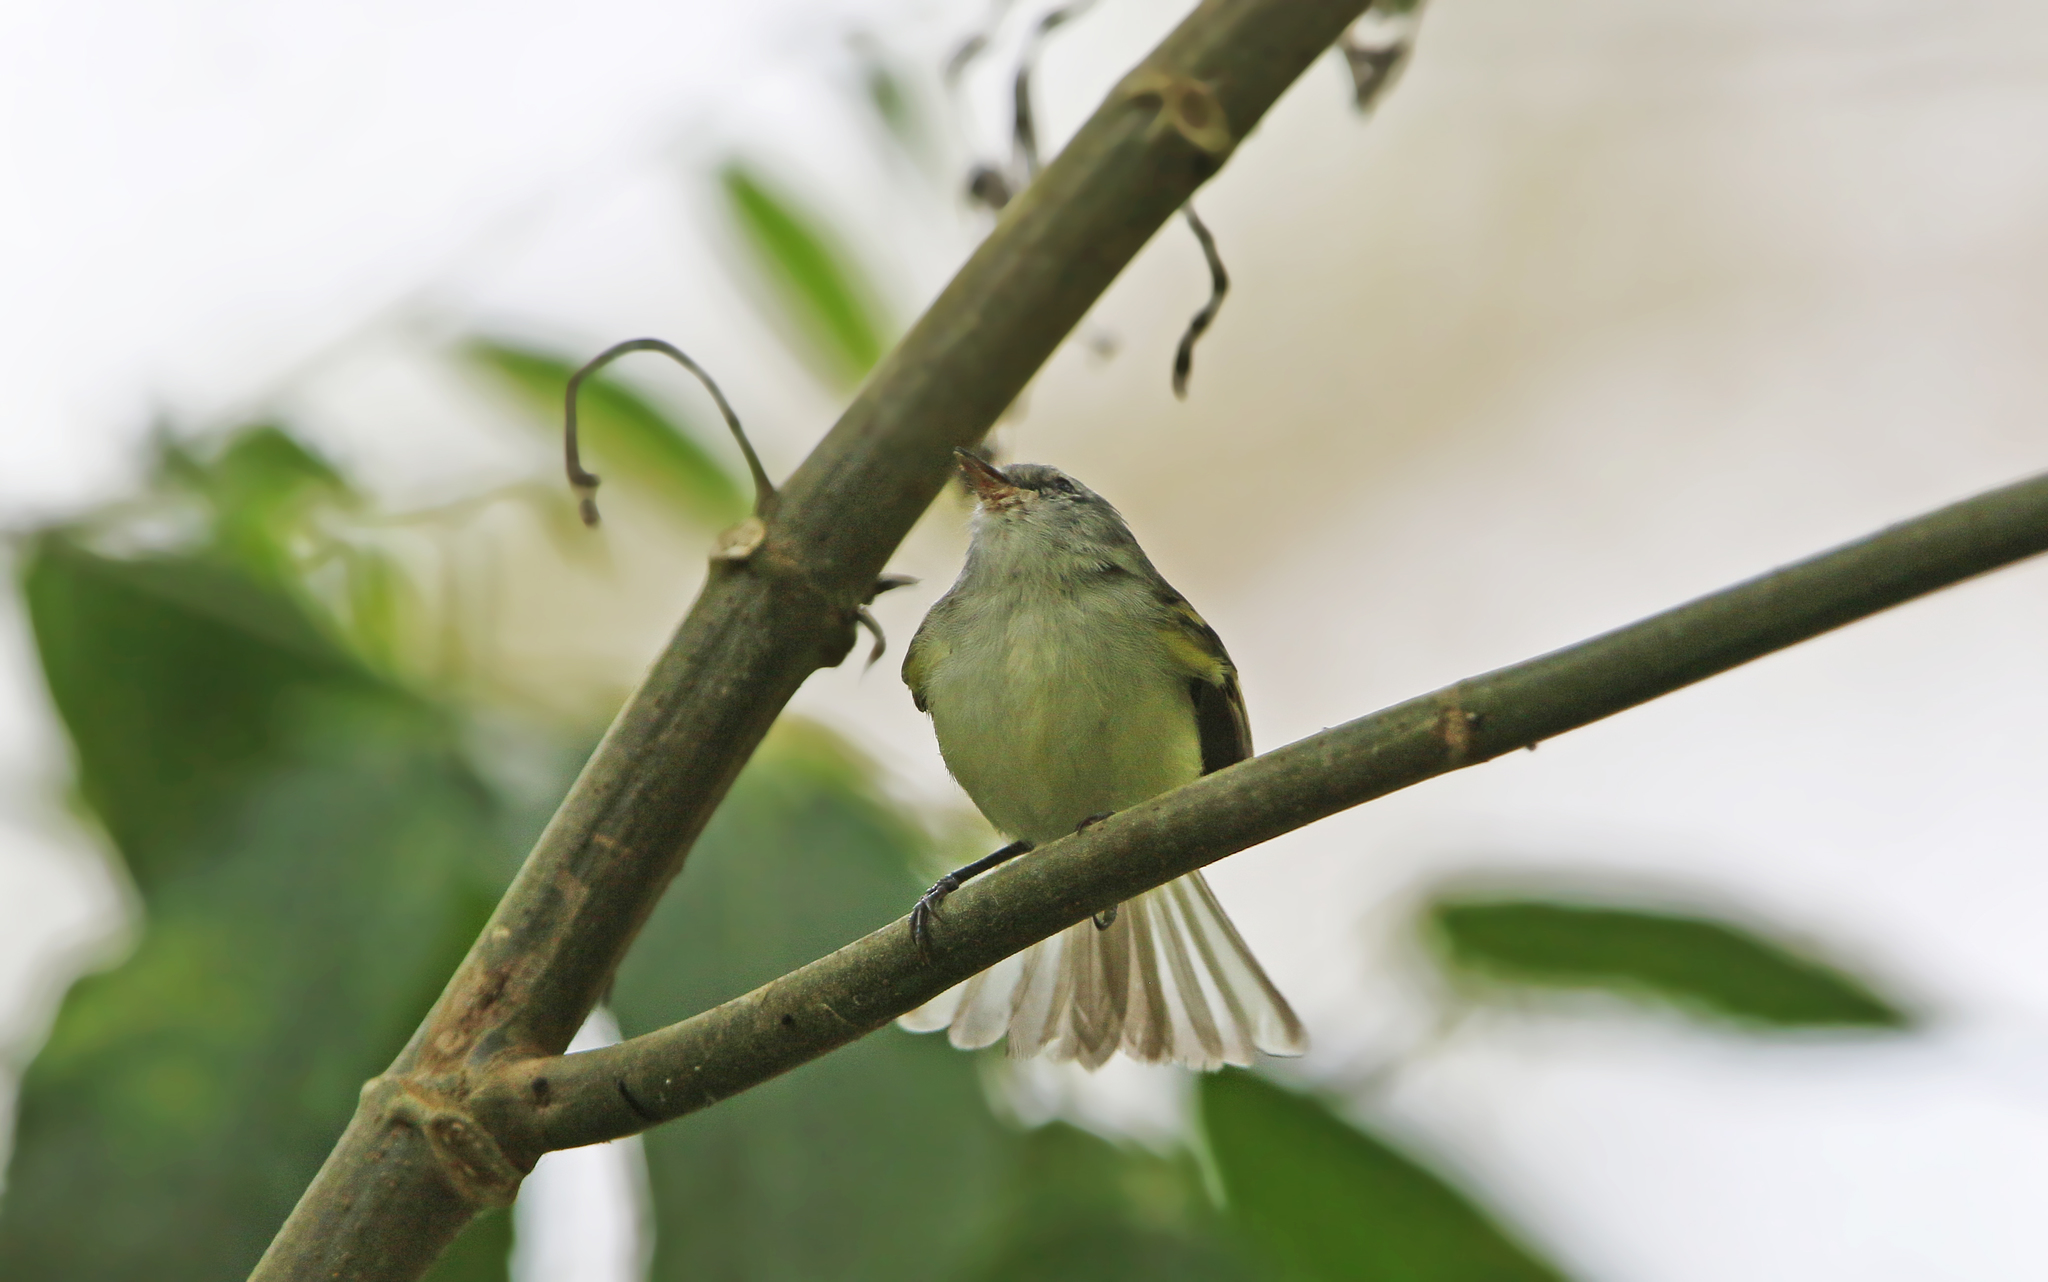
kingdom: Animalia
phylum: Chordata
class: Aves
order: Passeriformes
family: Tyrannidae
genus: Mecocerculus
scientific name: Mecocerculus poecilocercus
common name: White-tailed tyrannulet
